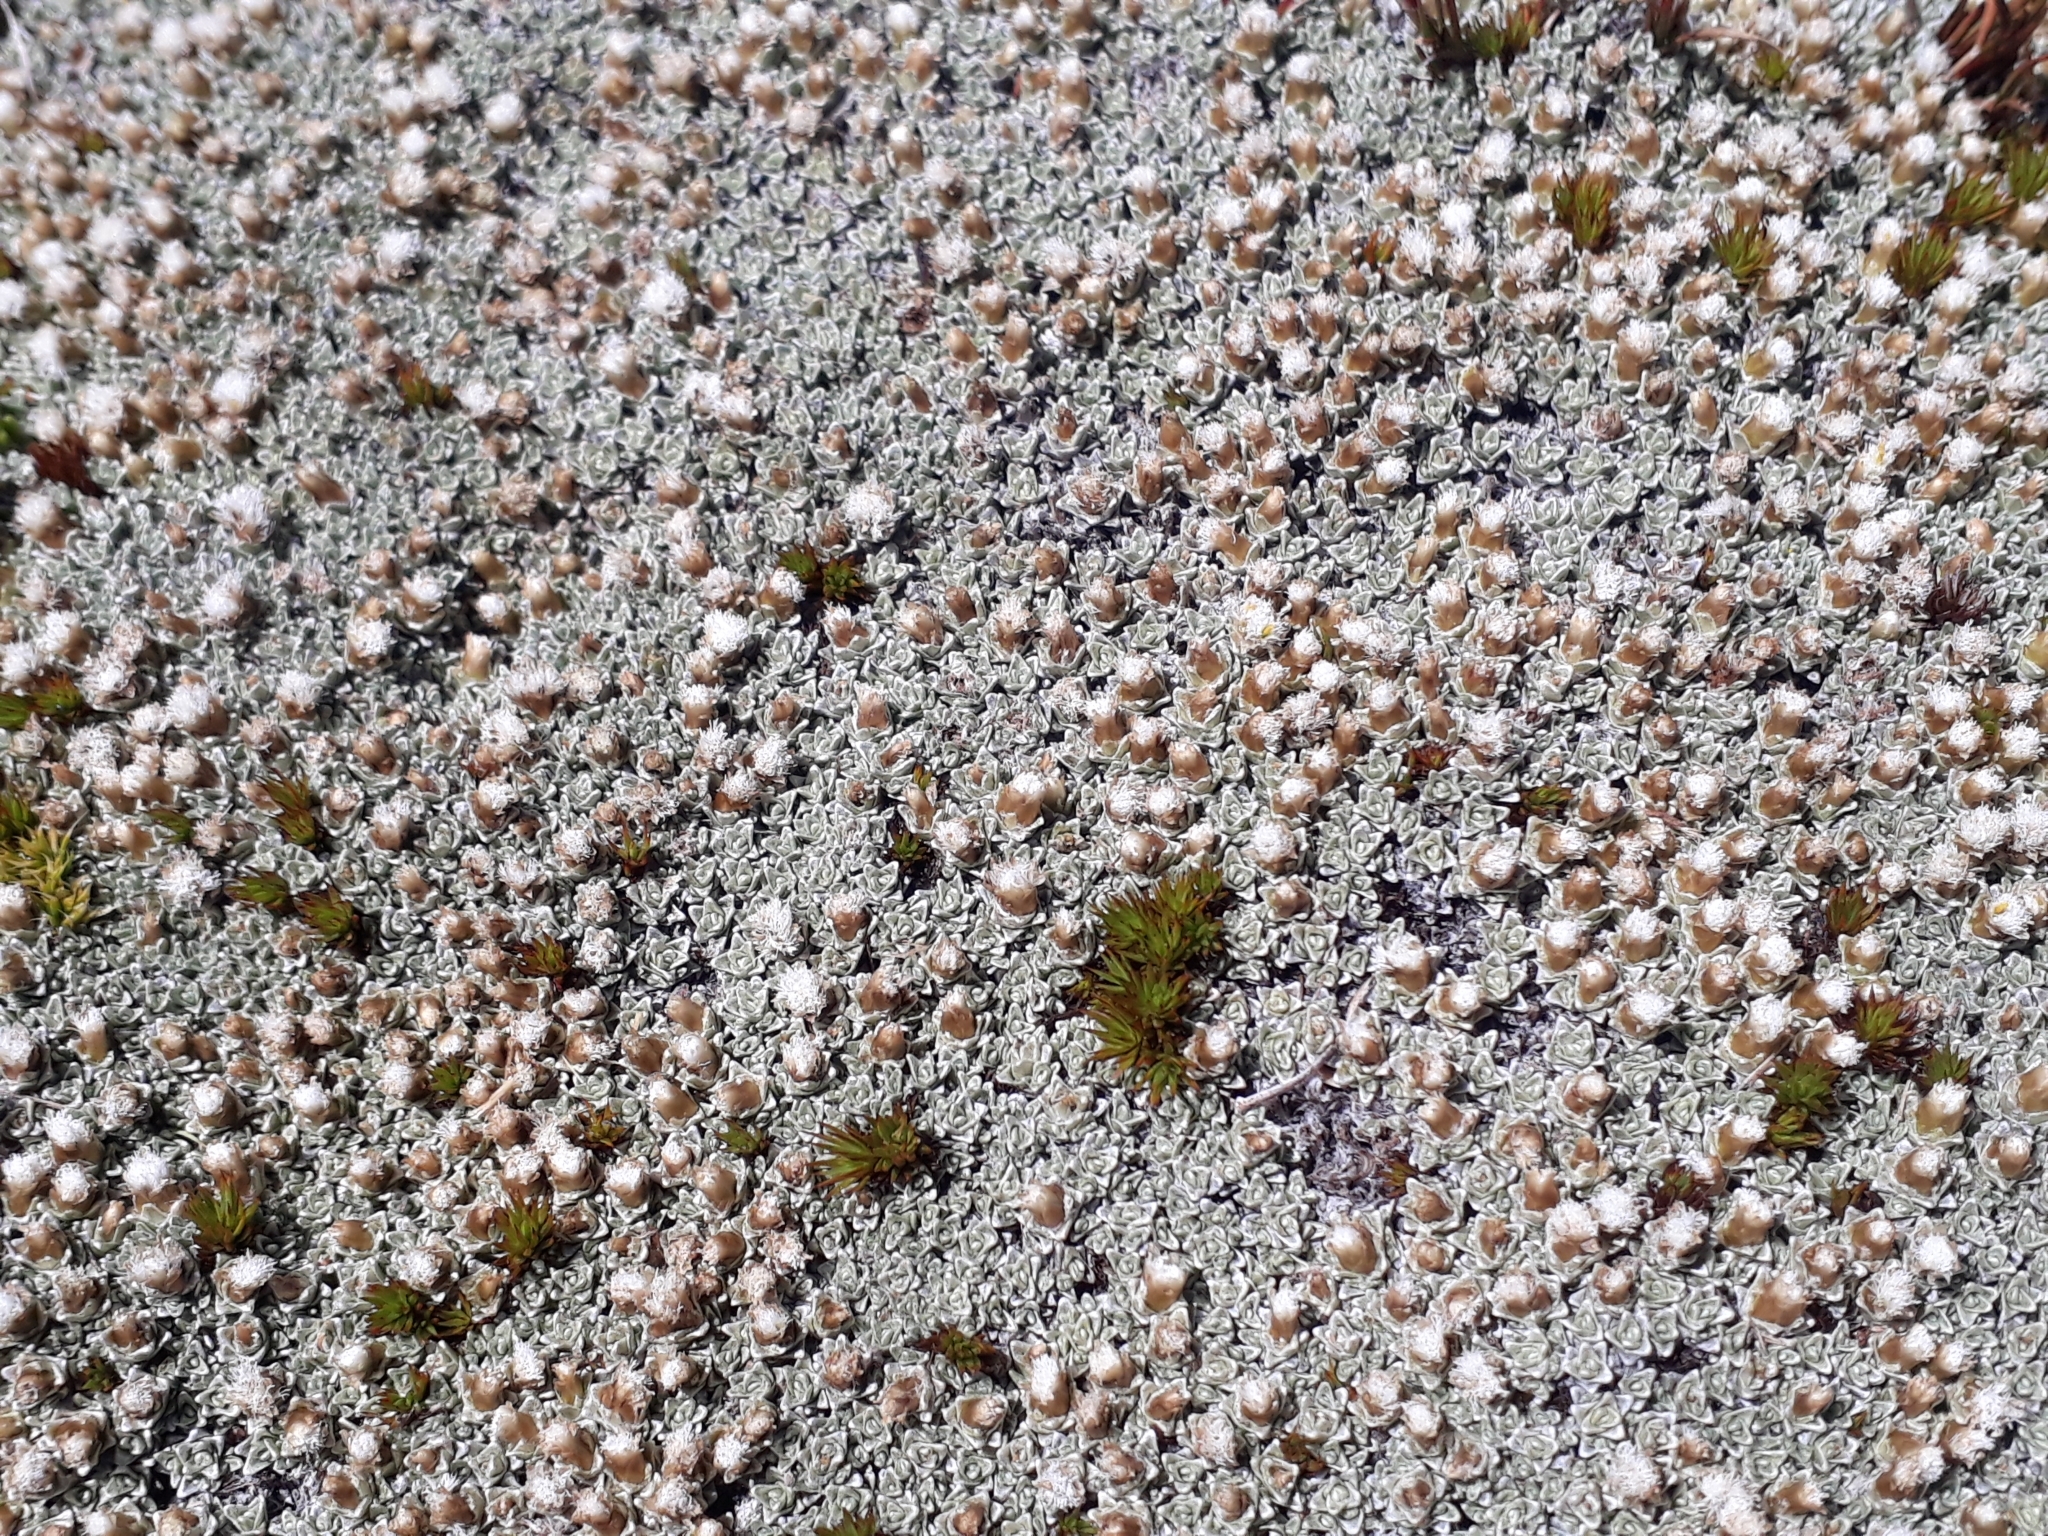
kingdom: Plantae
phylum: Tracheophyta
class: Magnoliopsida
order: Asterales
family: Asteraceae
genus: Raoulia
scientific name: Raoulia hectorii
